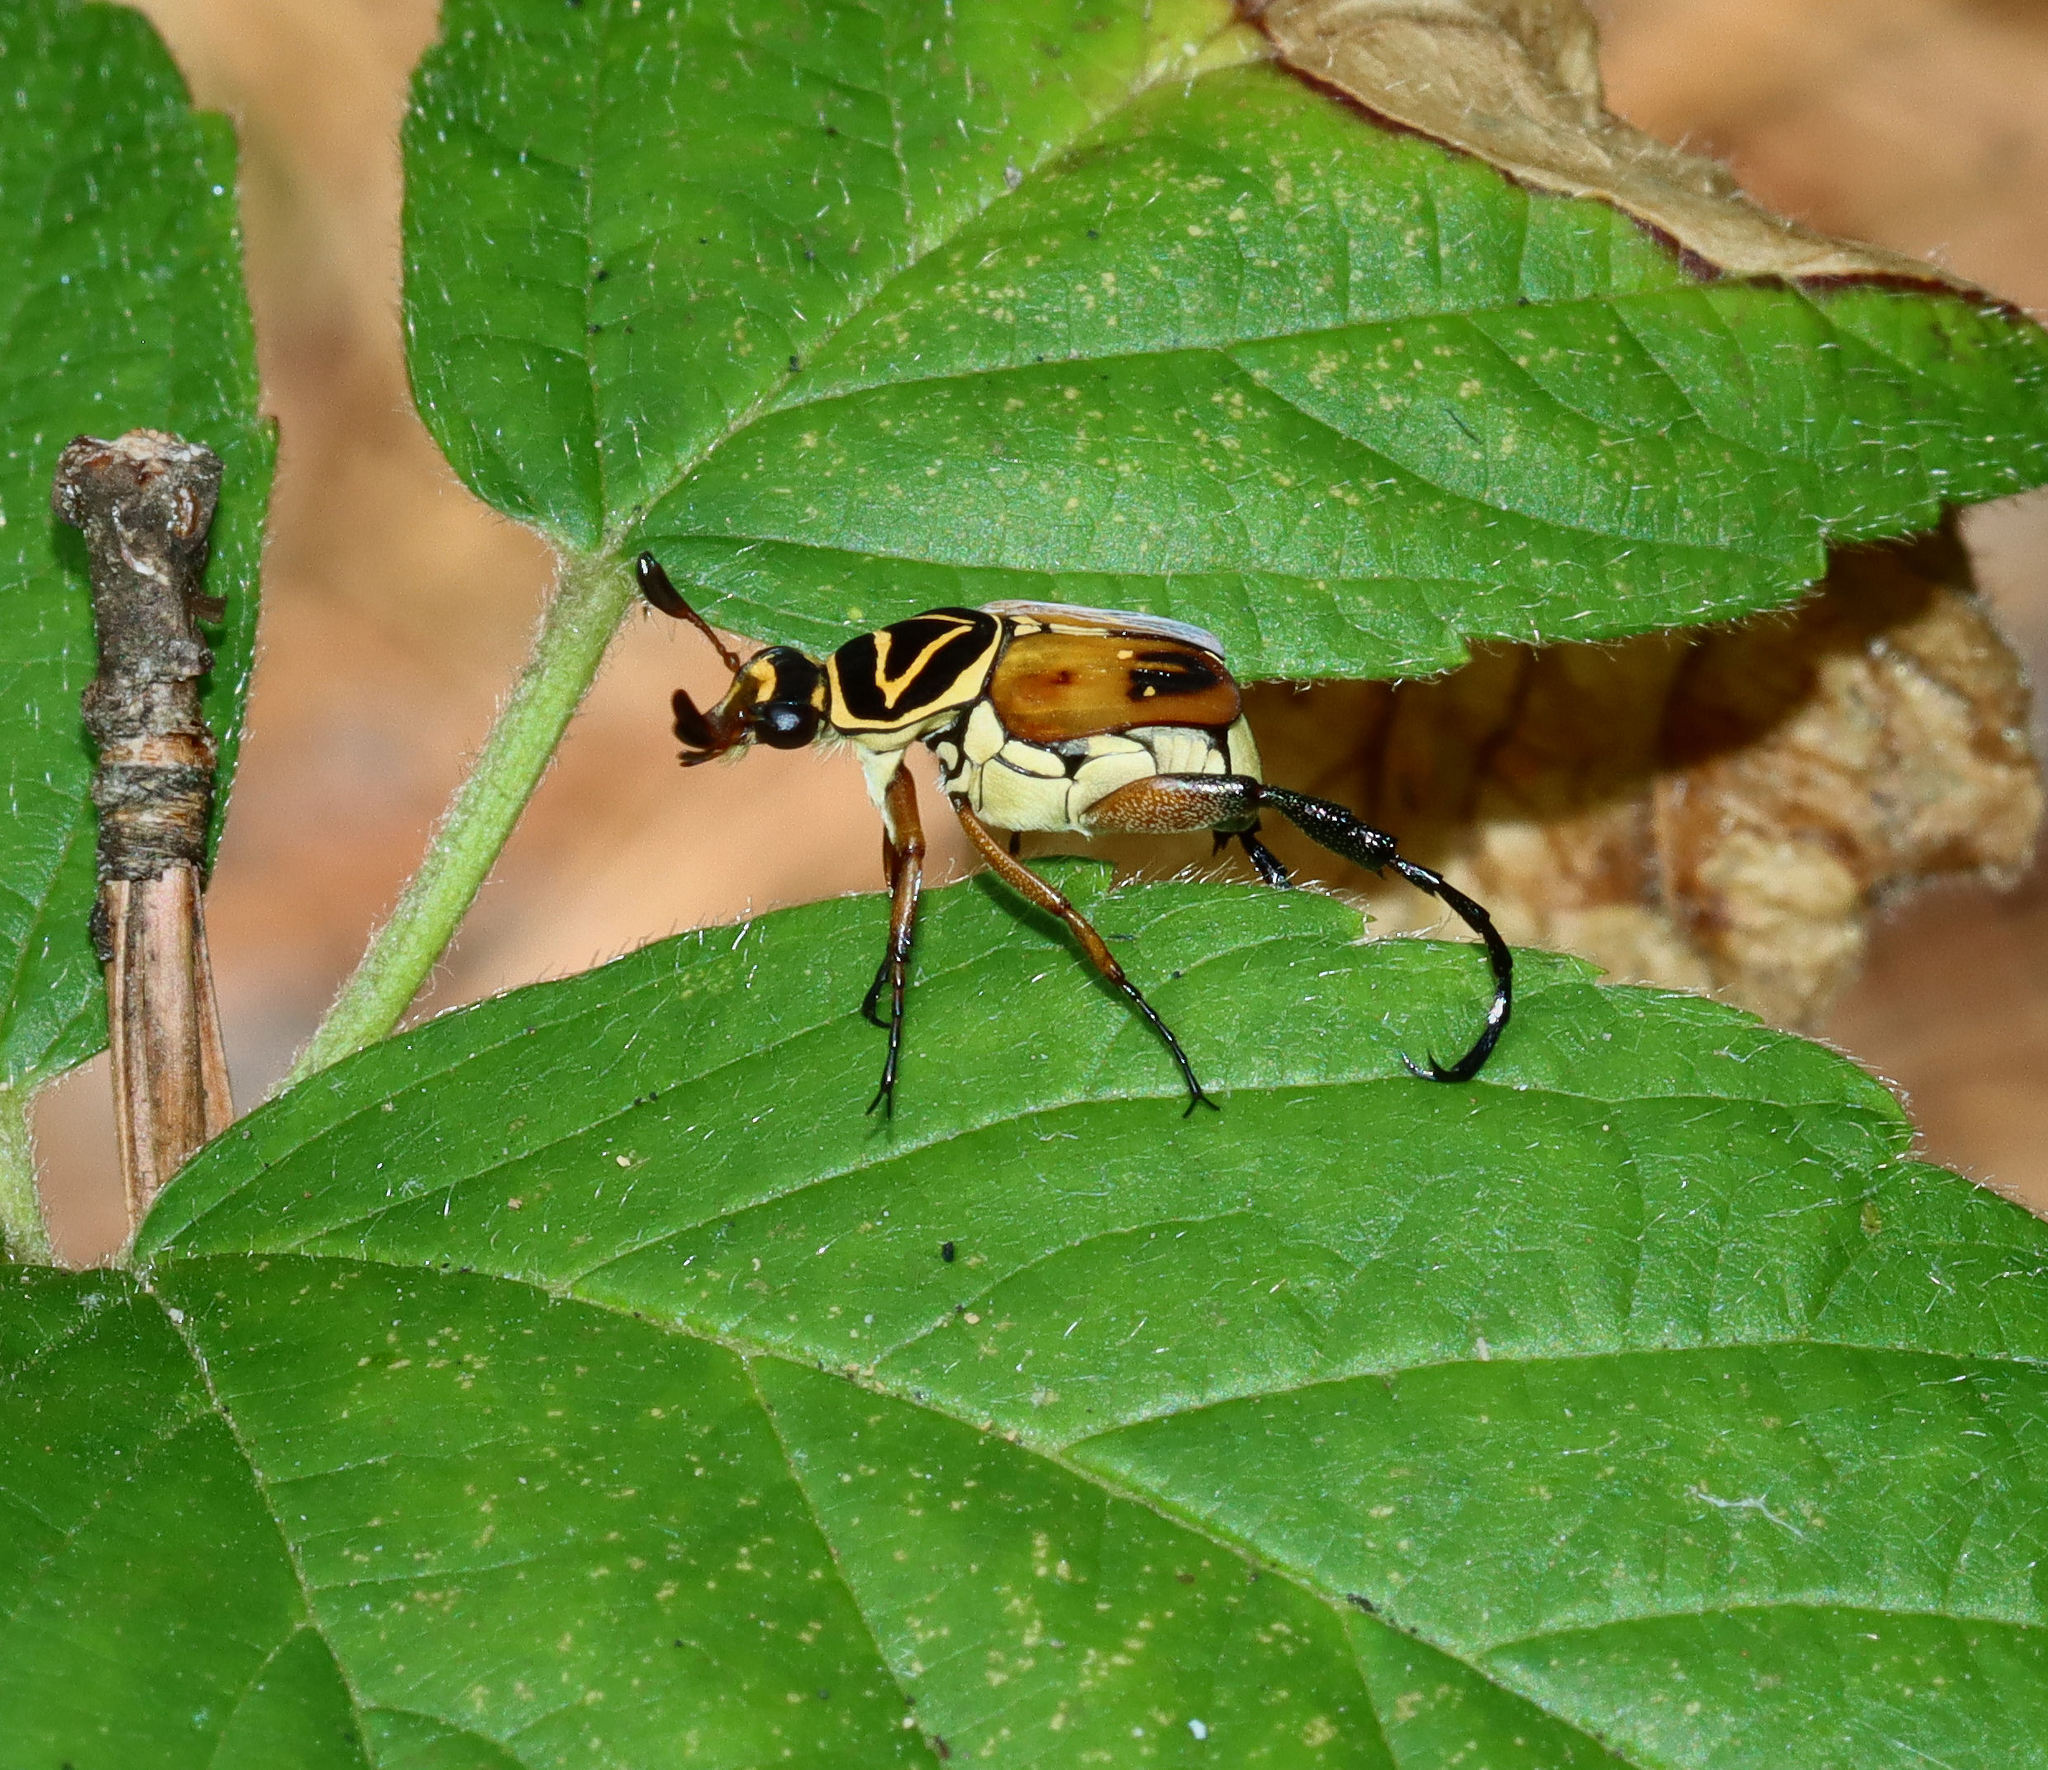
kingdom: Animalia
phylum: Arthropoda
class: Insecta
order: Coleoptera
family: Scarabaeidae
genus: Trigonopeltastes
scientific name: Trigonopeltastes delta
